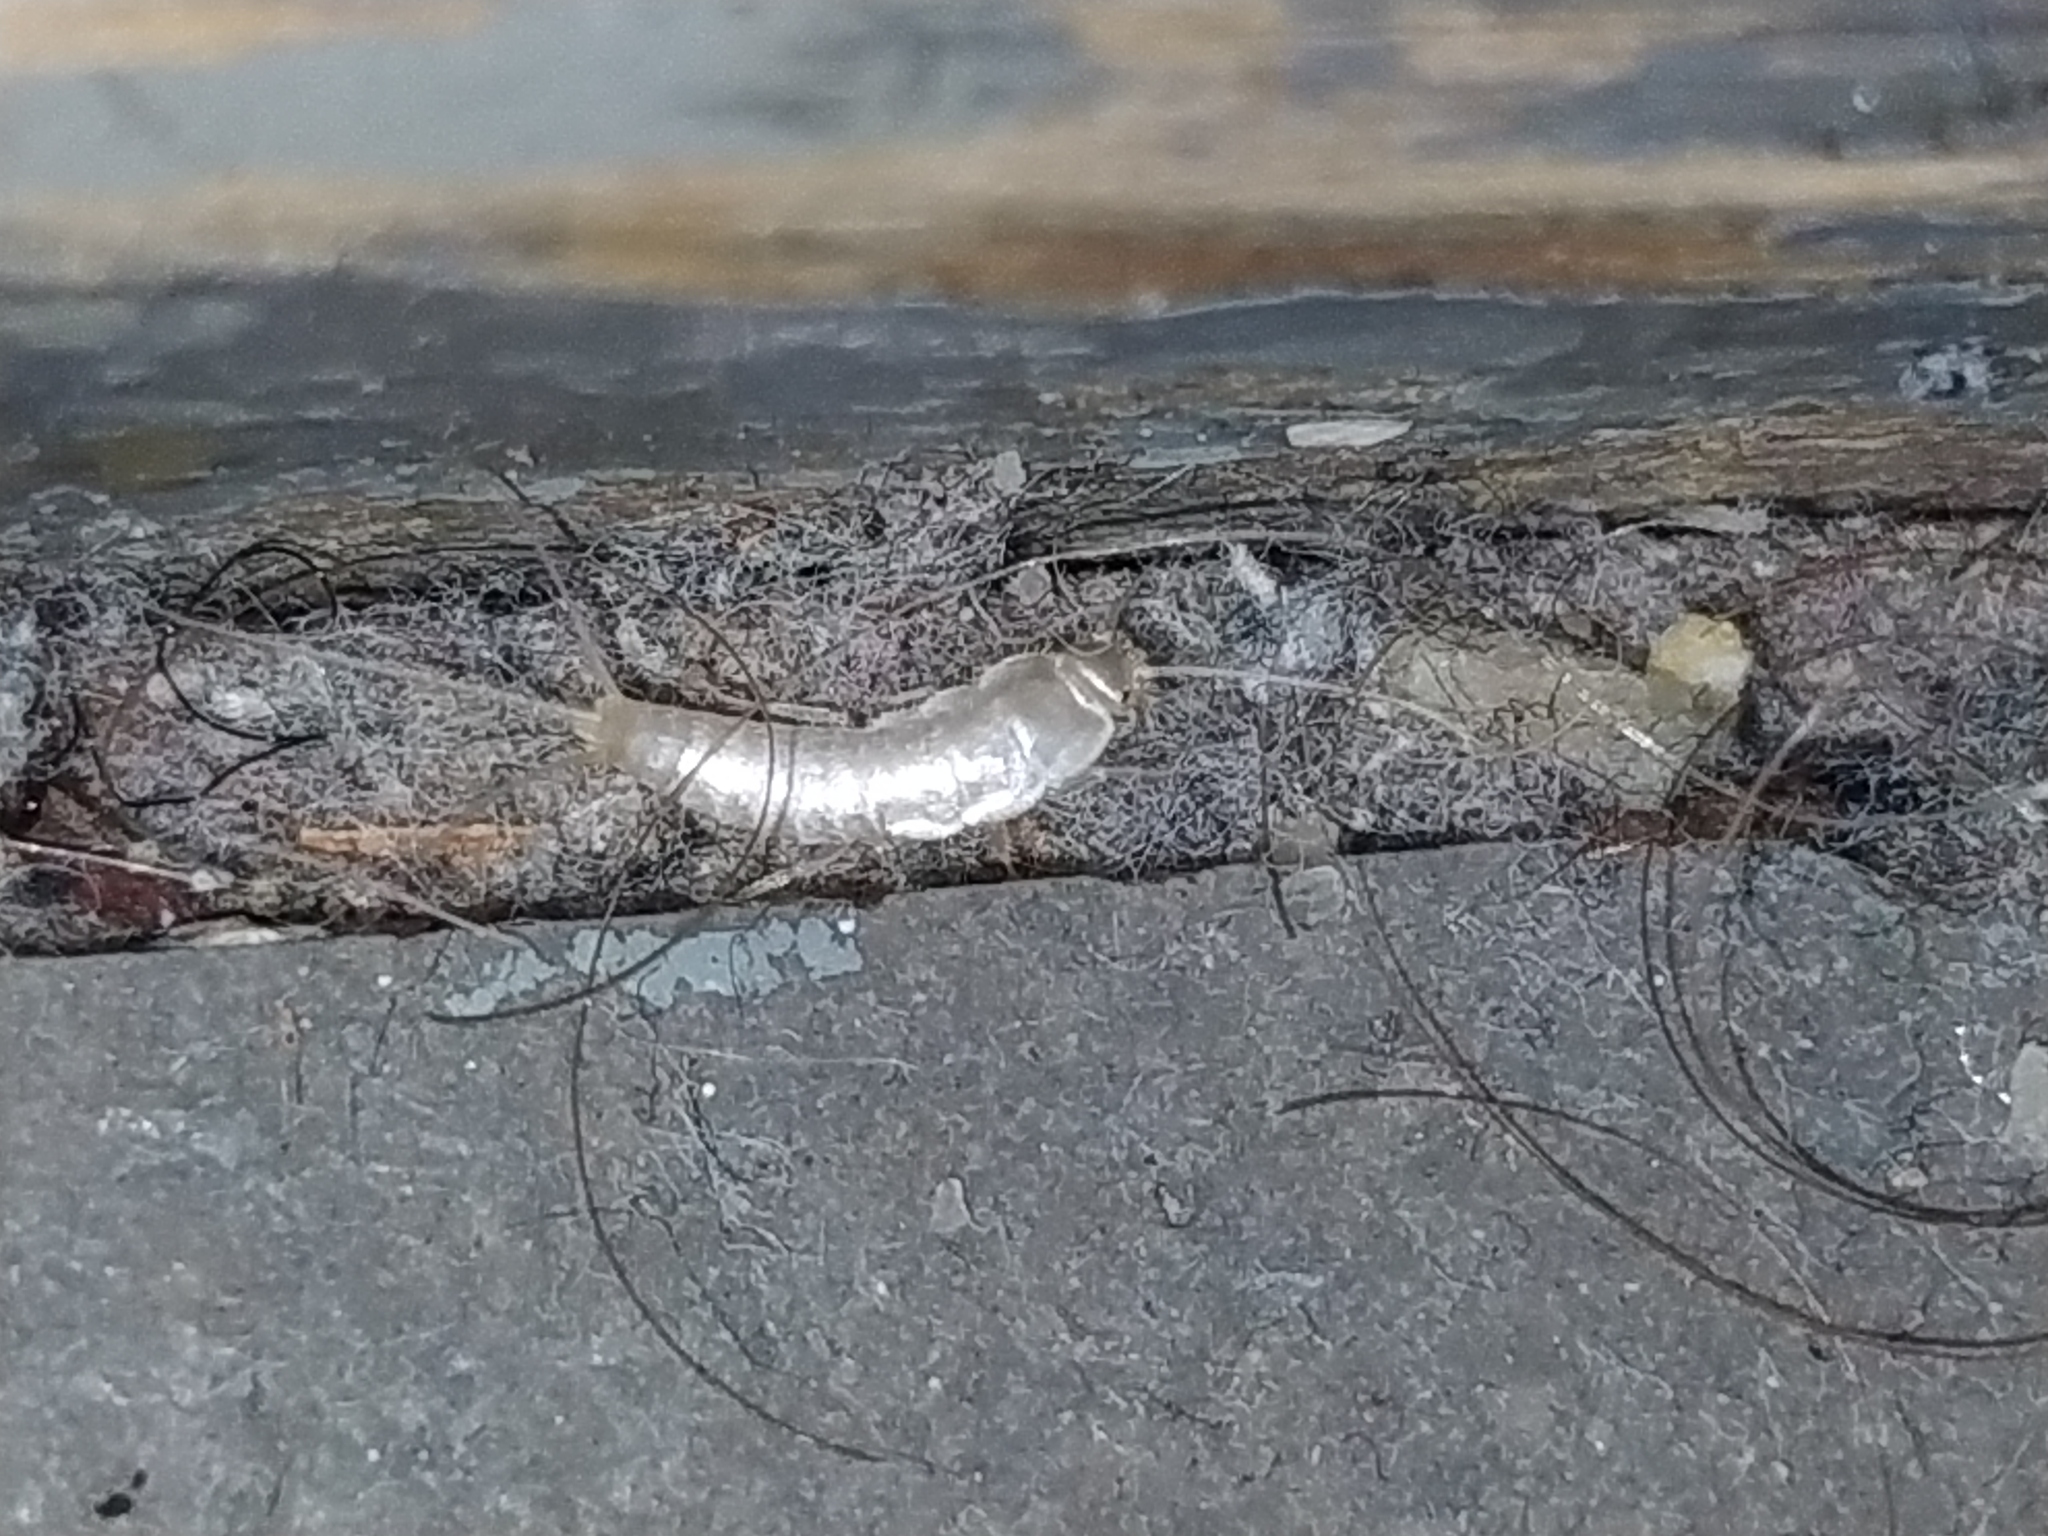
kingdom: Animalia
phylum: Arthropoda
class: Insecta
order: Zygentoma
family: Lepismatidae
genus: Ctenolepisma
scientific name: Ctenolepisma calvum
